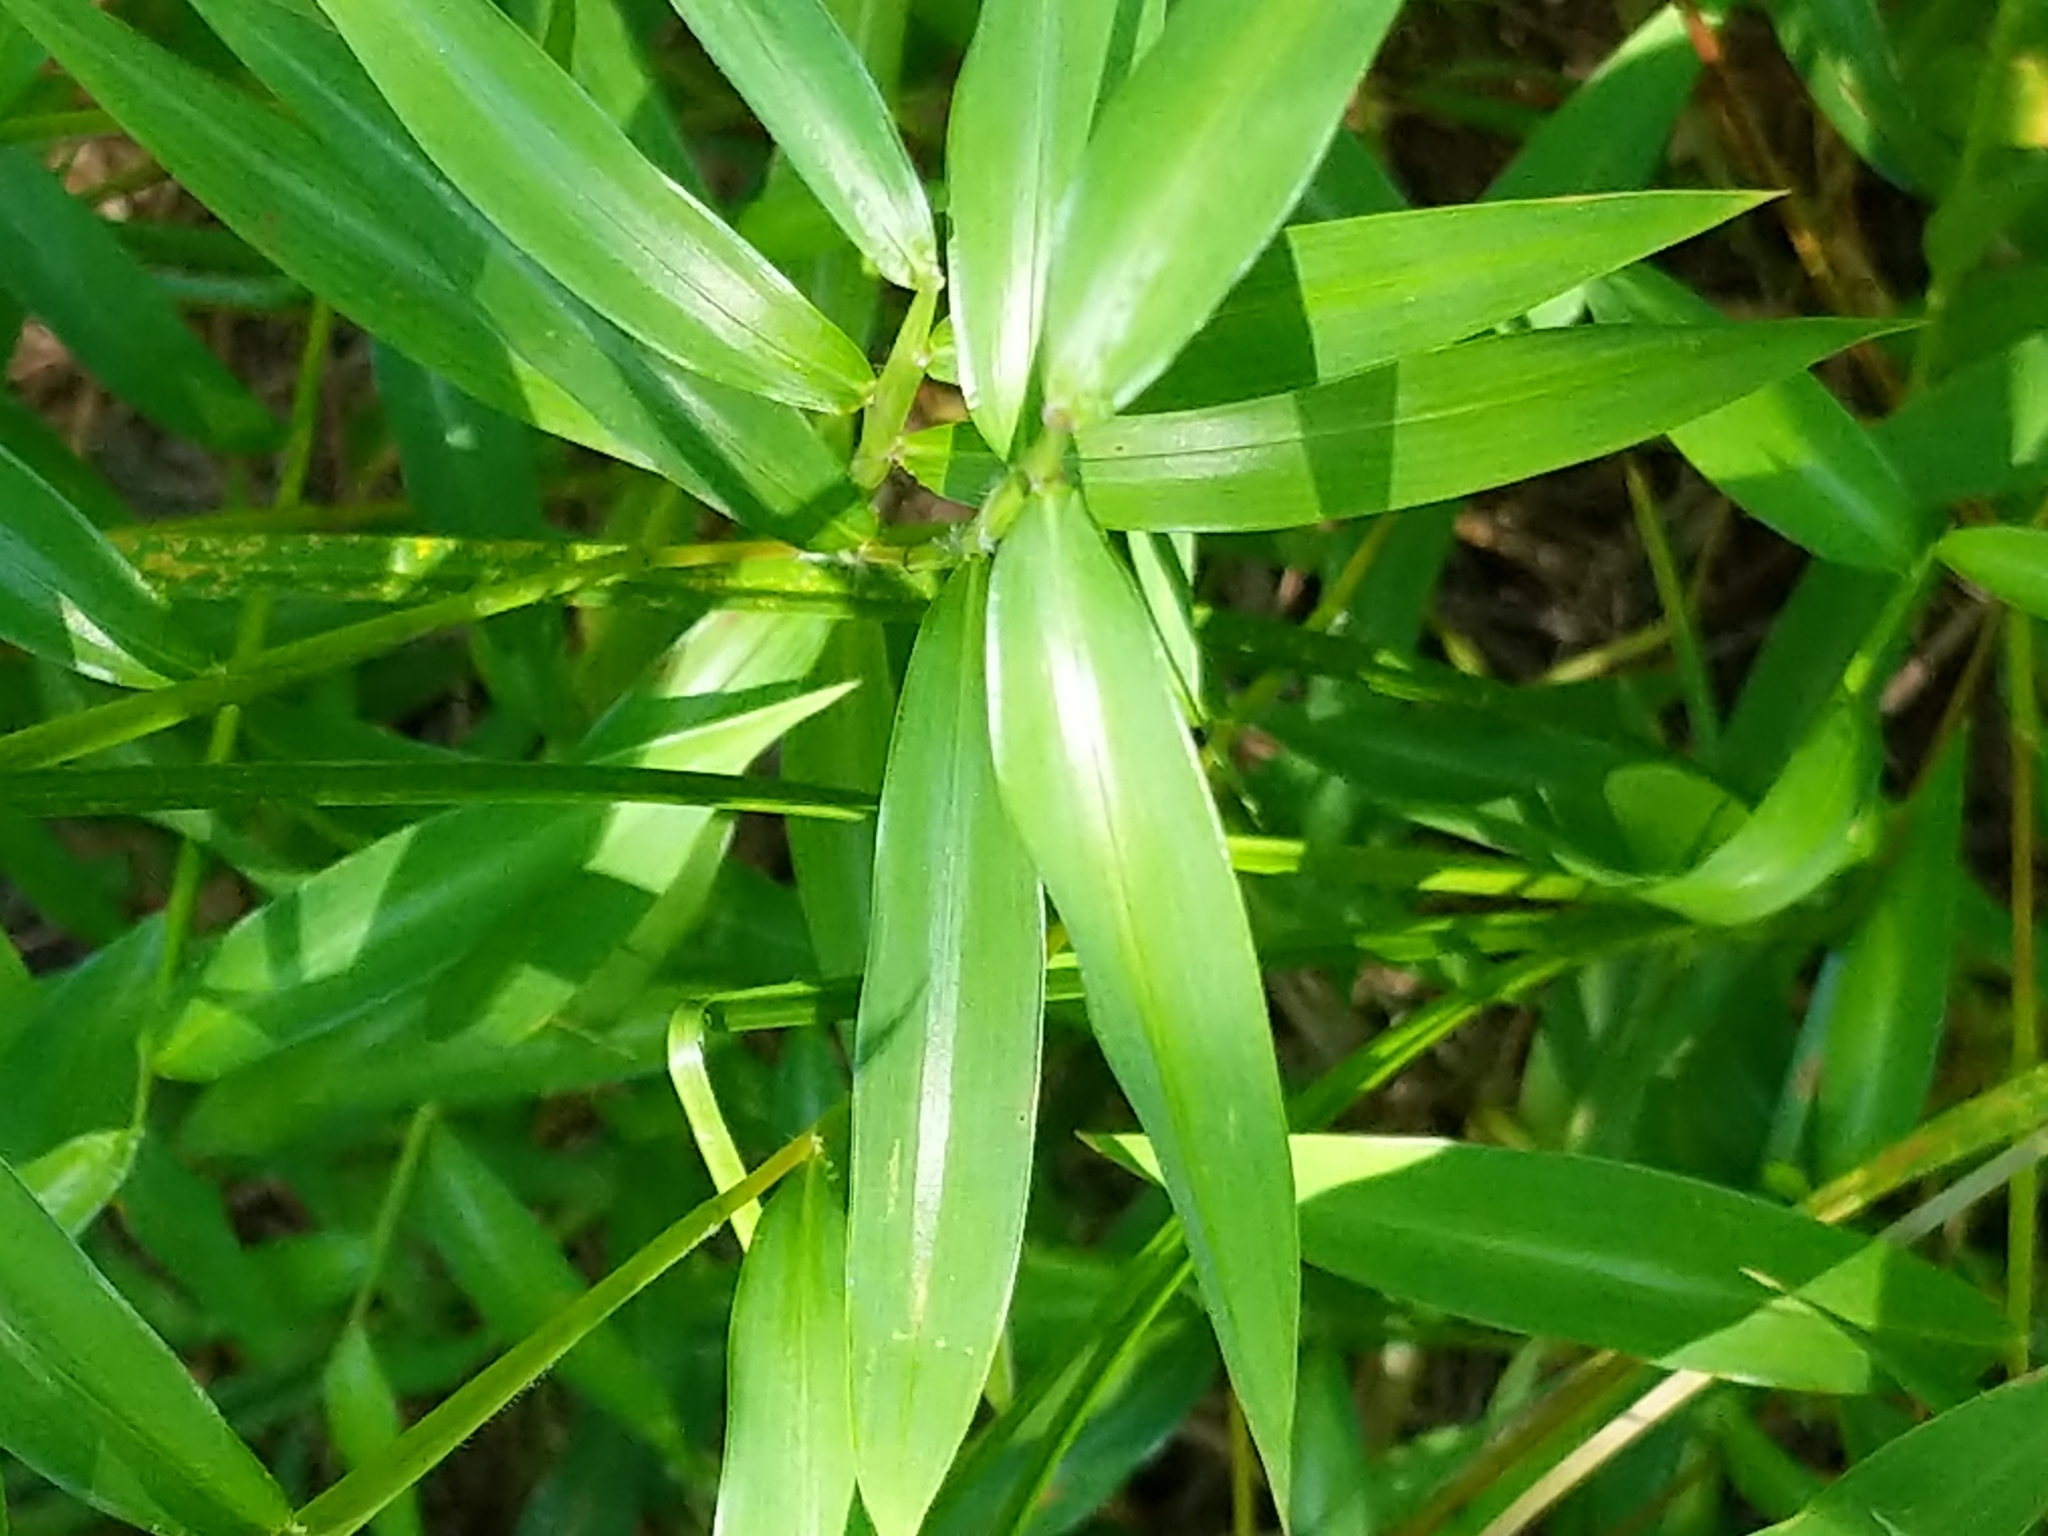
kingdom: Plantae
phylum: Tracheophyta
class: Liliopsida
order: Poales
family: Poaceae
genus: Microstegium
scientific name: Microstegium vimineum
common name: Japanese stiltgrass
